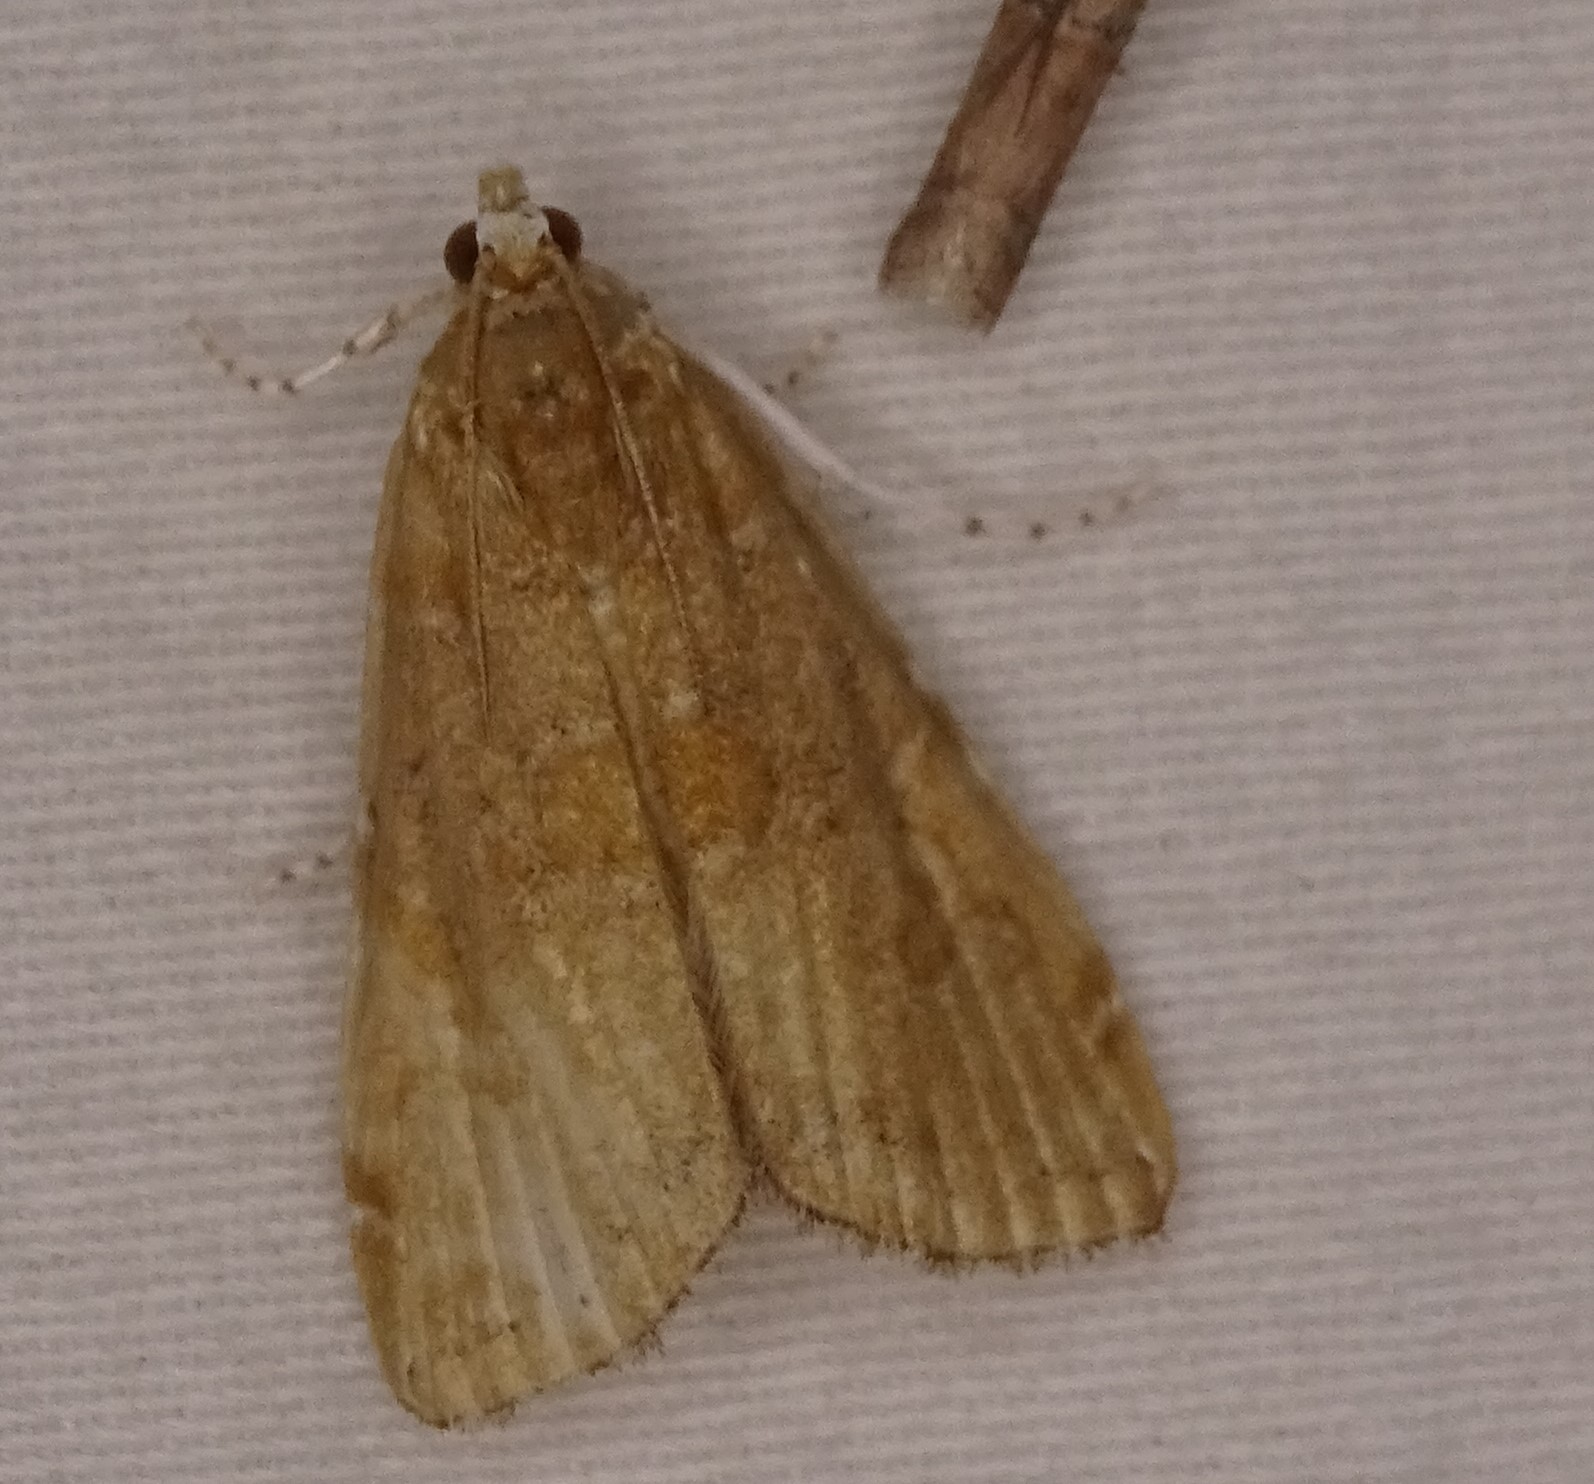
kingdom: Animalia
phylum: Arthropoda
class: Insecta
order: Lepidoptera
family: Crambidae
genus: Elophila
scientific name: Elophila gyralis
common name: Waterlily borer moth
